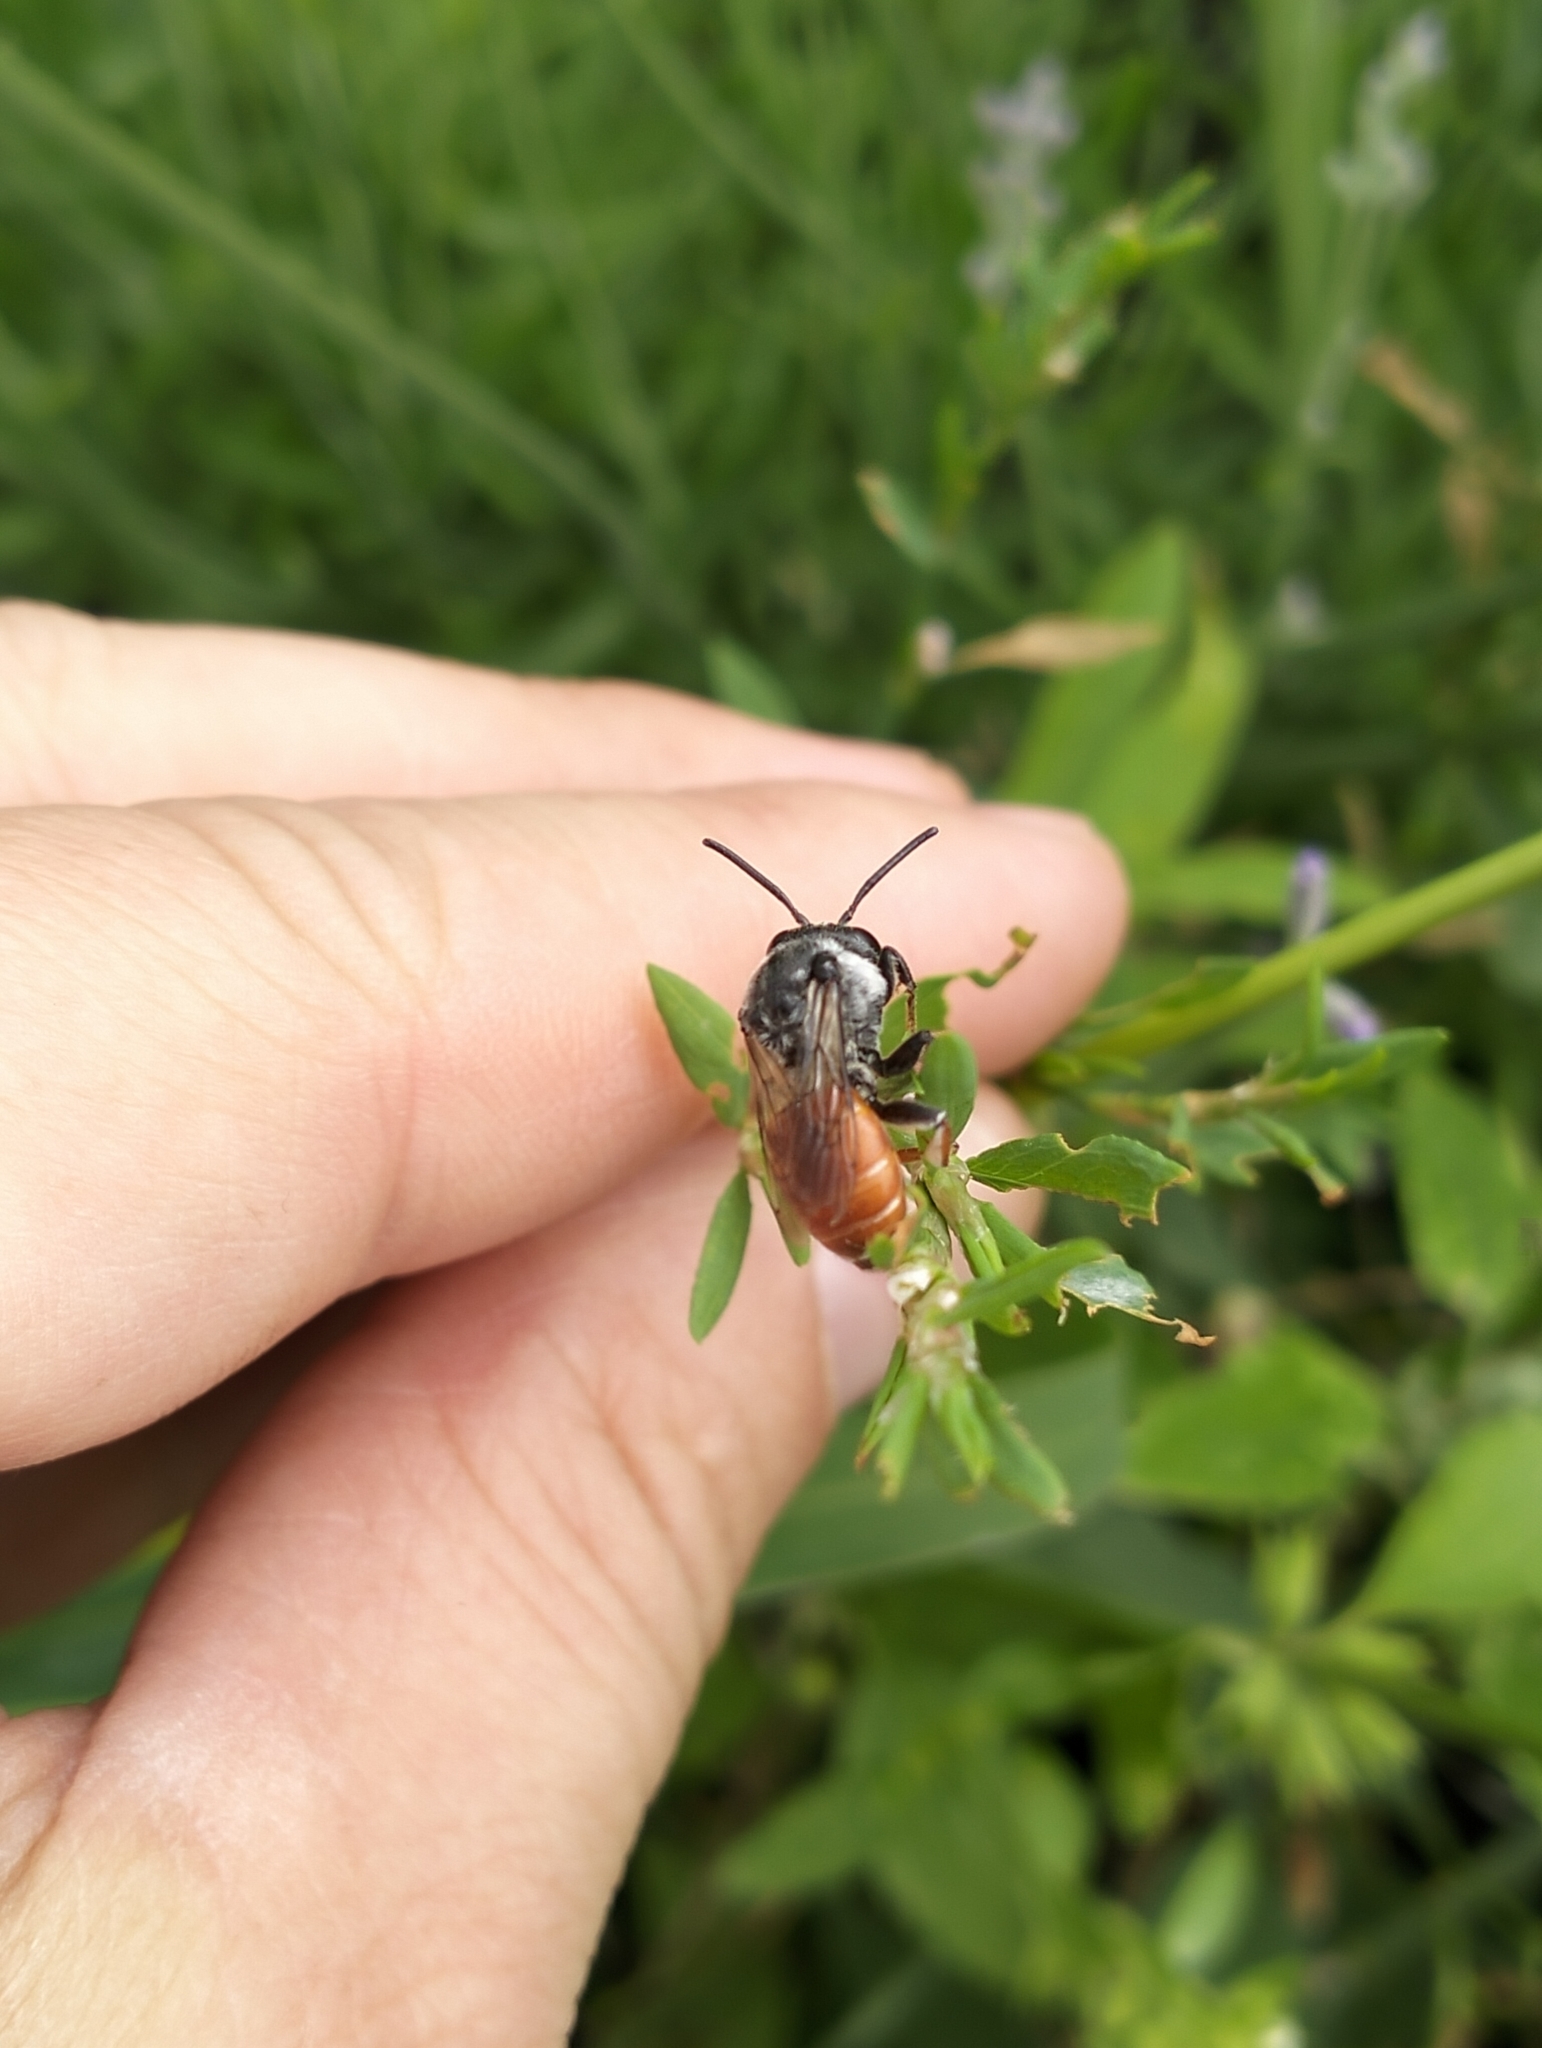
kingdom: Animalia
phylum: Arthropoda
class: Insecta
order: Hymenoptera
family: Apidae
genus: Ammobatoides
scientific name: Ammobatoides abdominalis
